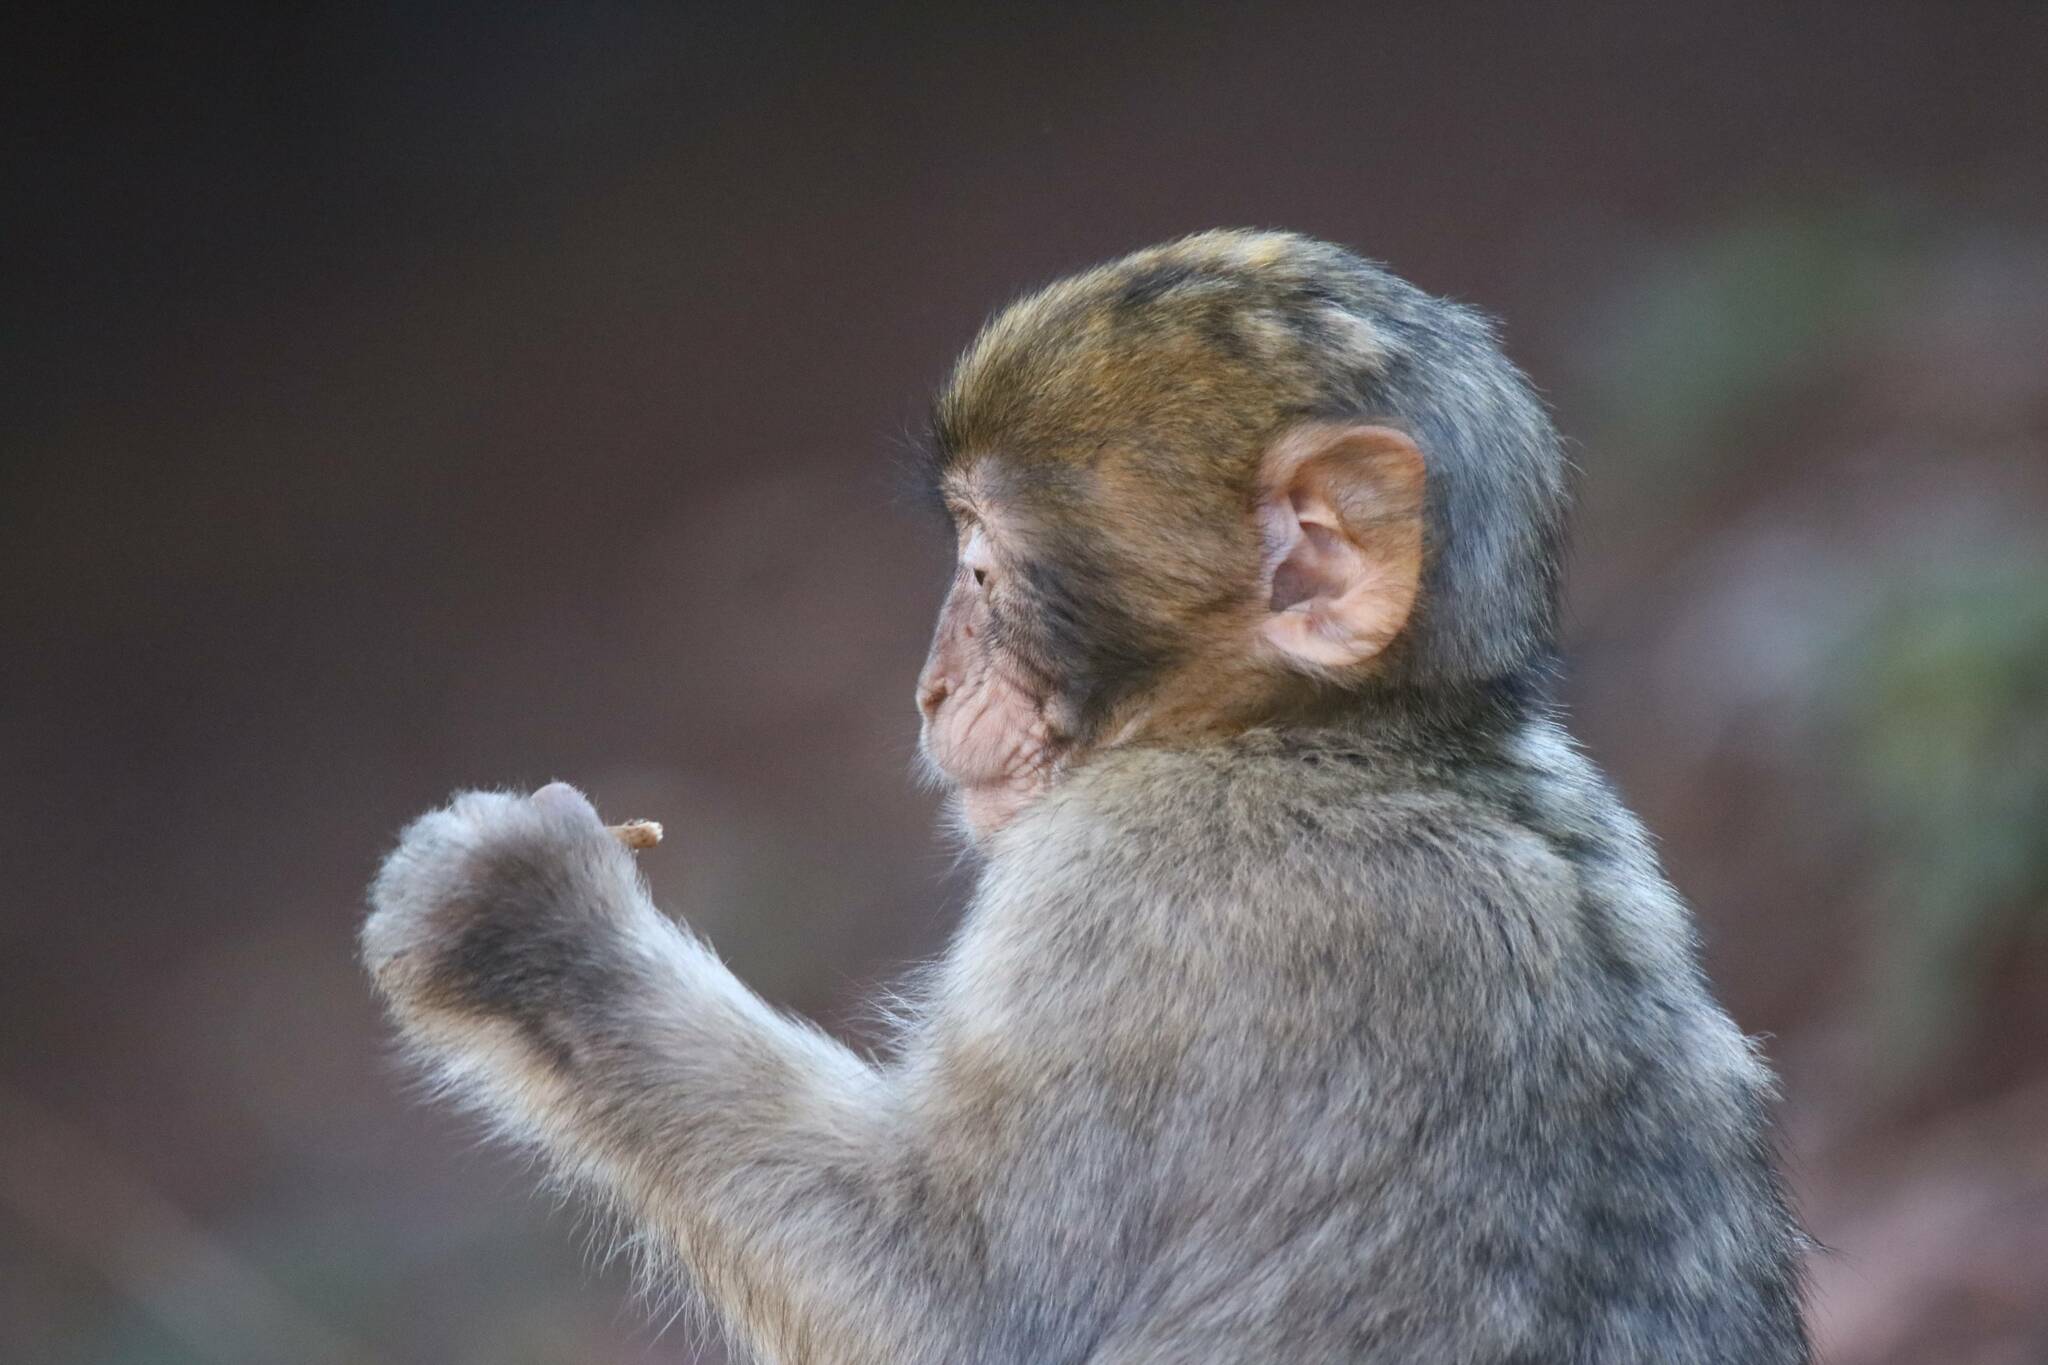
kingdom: Animalia
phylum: Chordata
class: Mammalia
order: Primates
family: Cercopithecidae
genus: Macaca
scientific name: Macaca sylvanus
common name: Barbary macaque
